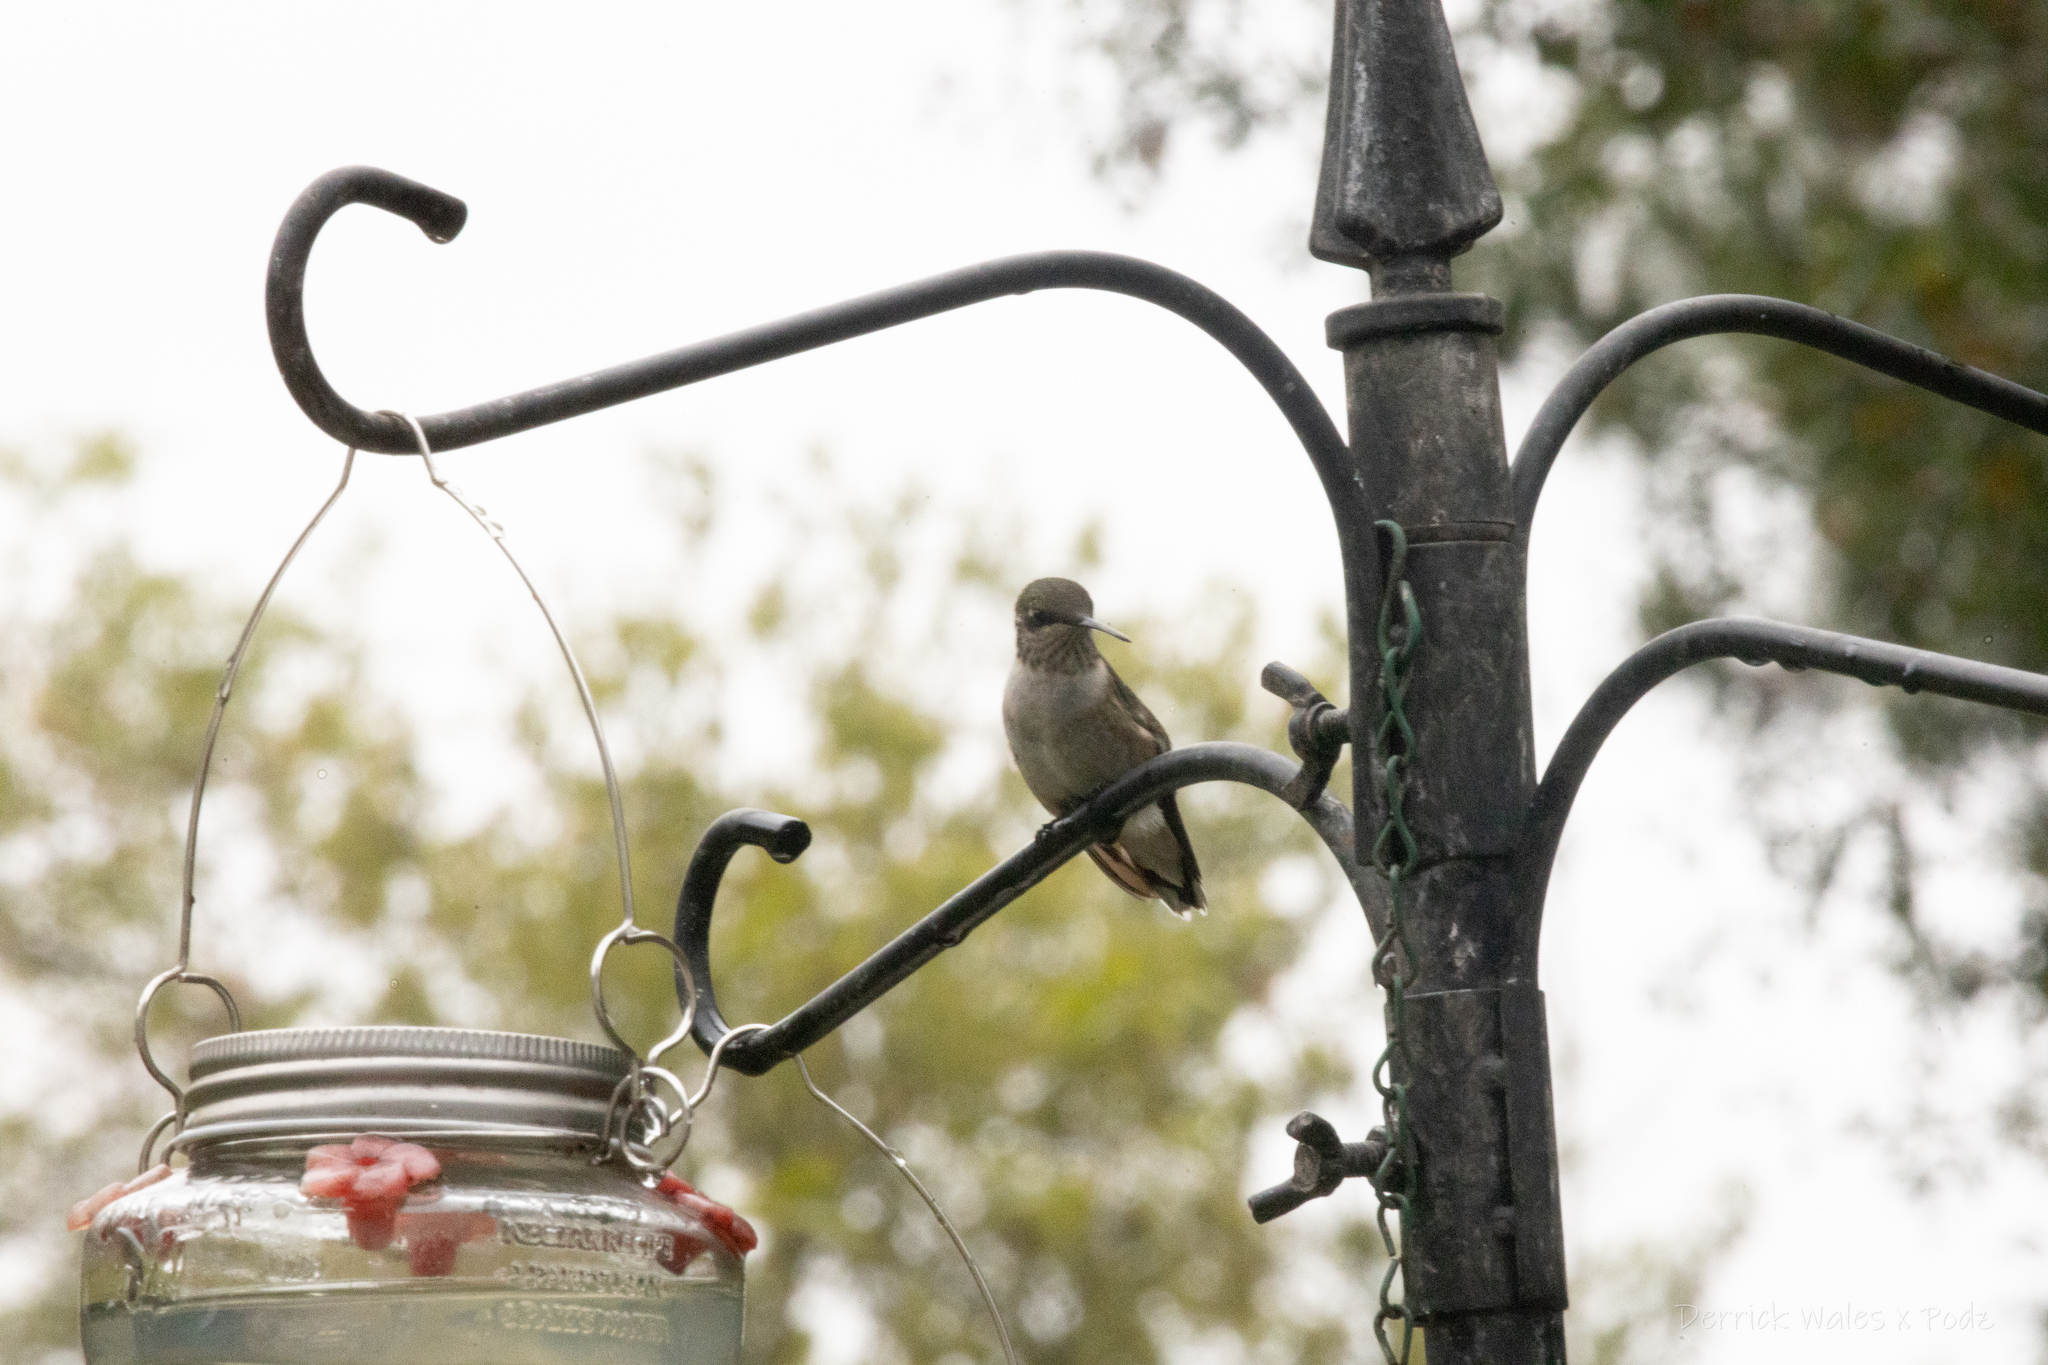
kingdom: Animalia
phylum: Chordata
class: Aves
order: Apodiformes
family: Trochilidae
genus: Archilochus
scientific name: Archilochus colubris
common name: Ruby-throated hummingbird
